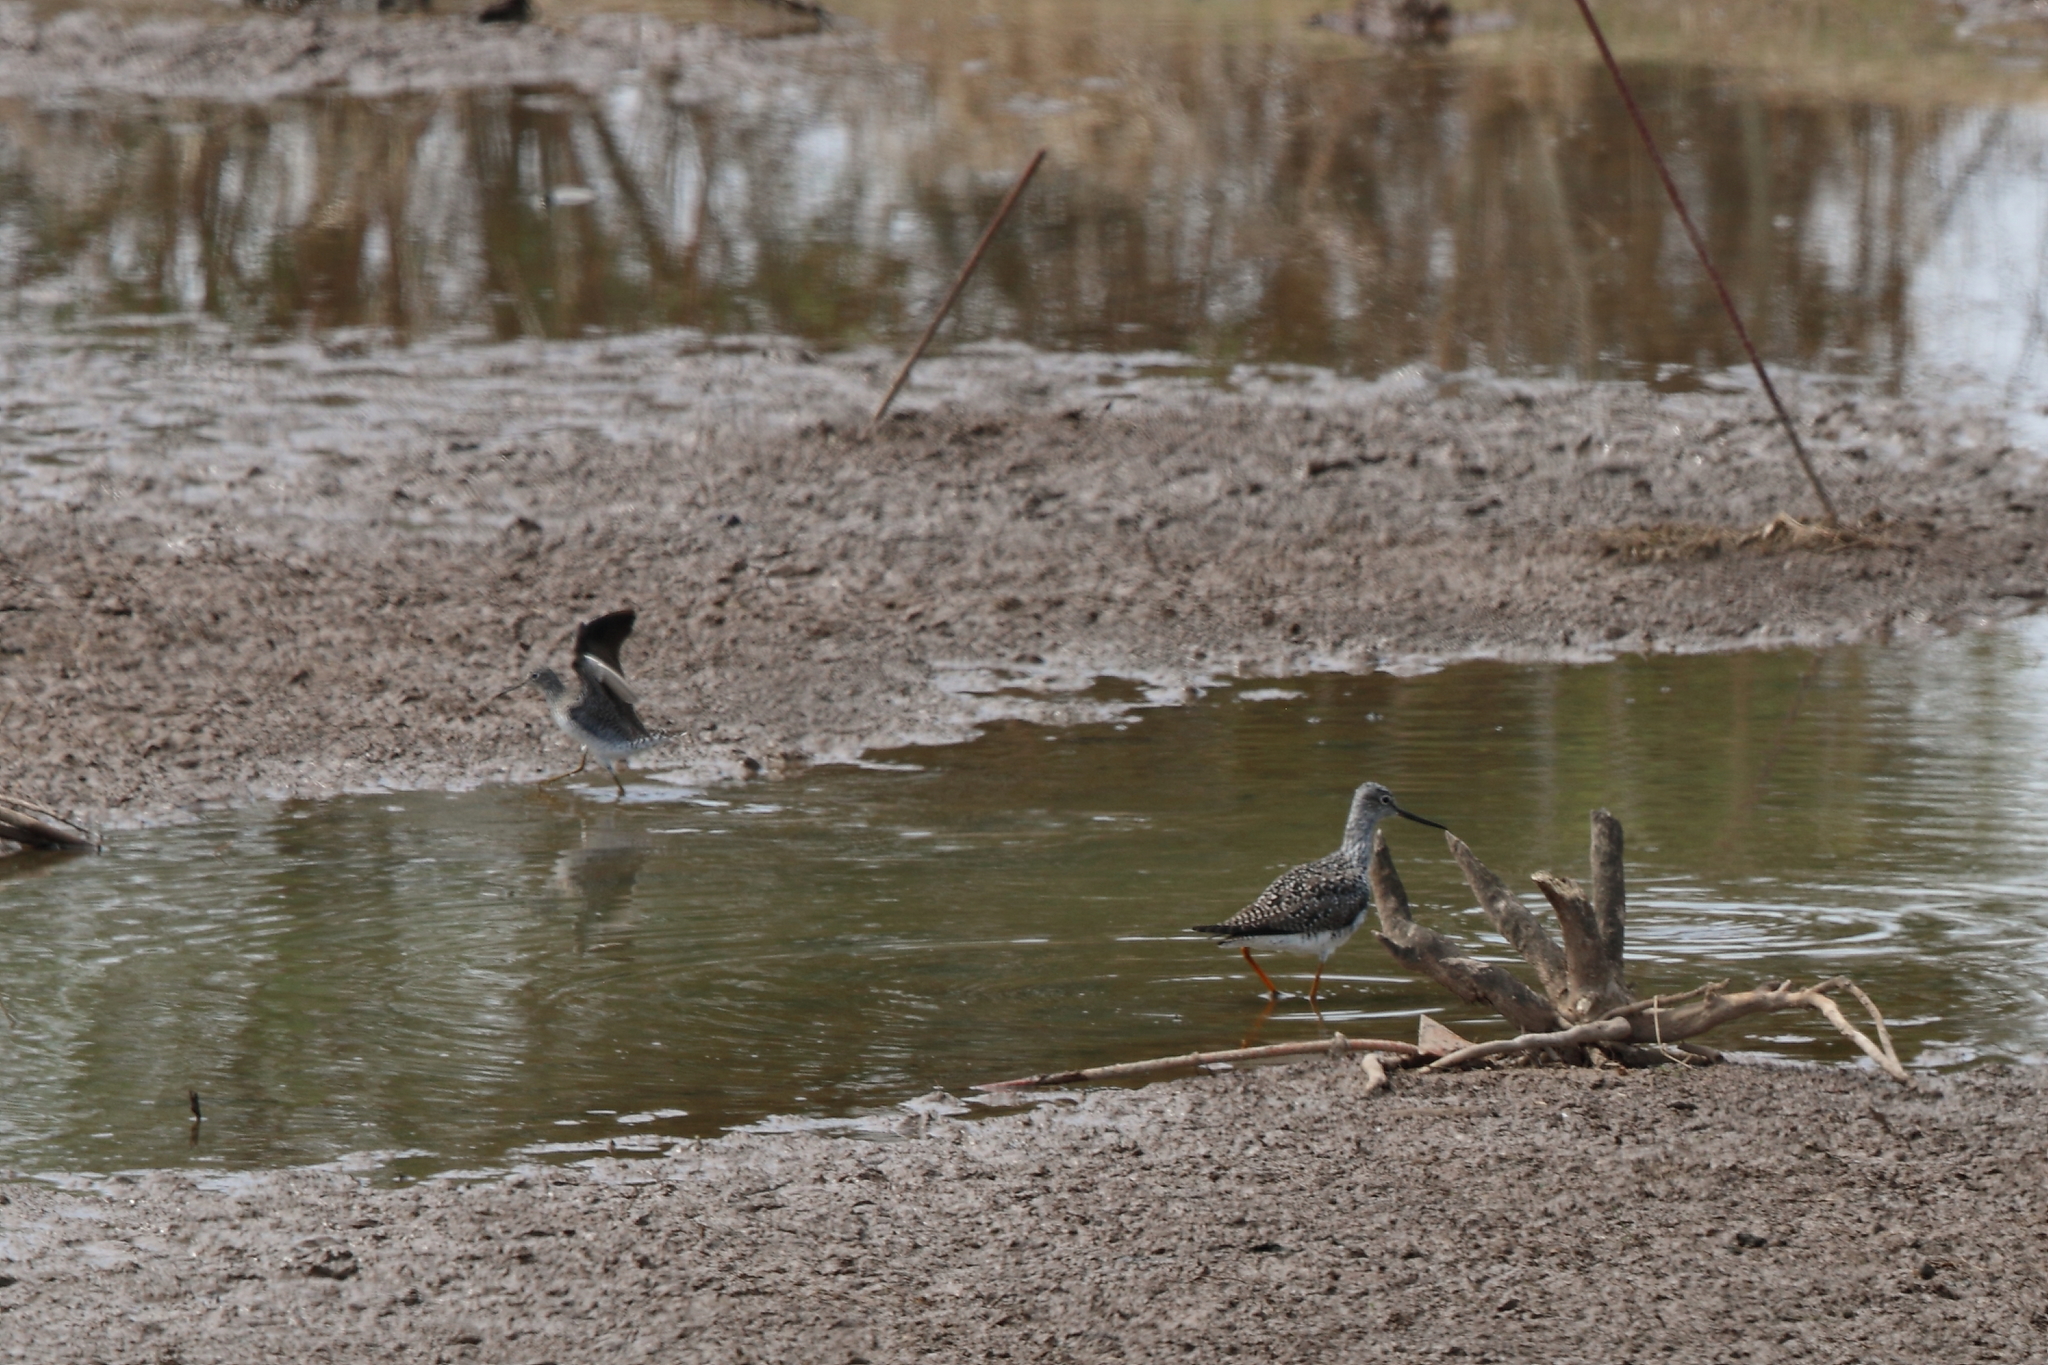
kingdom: Animalia
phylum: Chordata
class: Aves
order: Charadriiformes
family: Scolopacidae
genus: Tringa
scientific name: Tringa melanoleuca
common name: Greater yellowlegs
